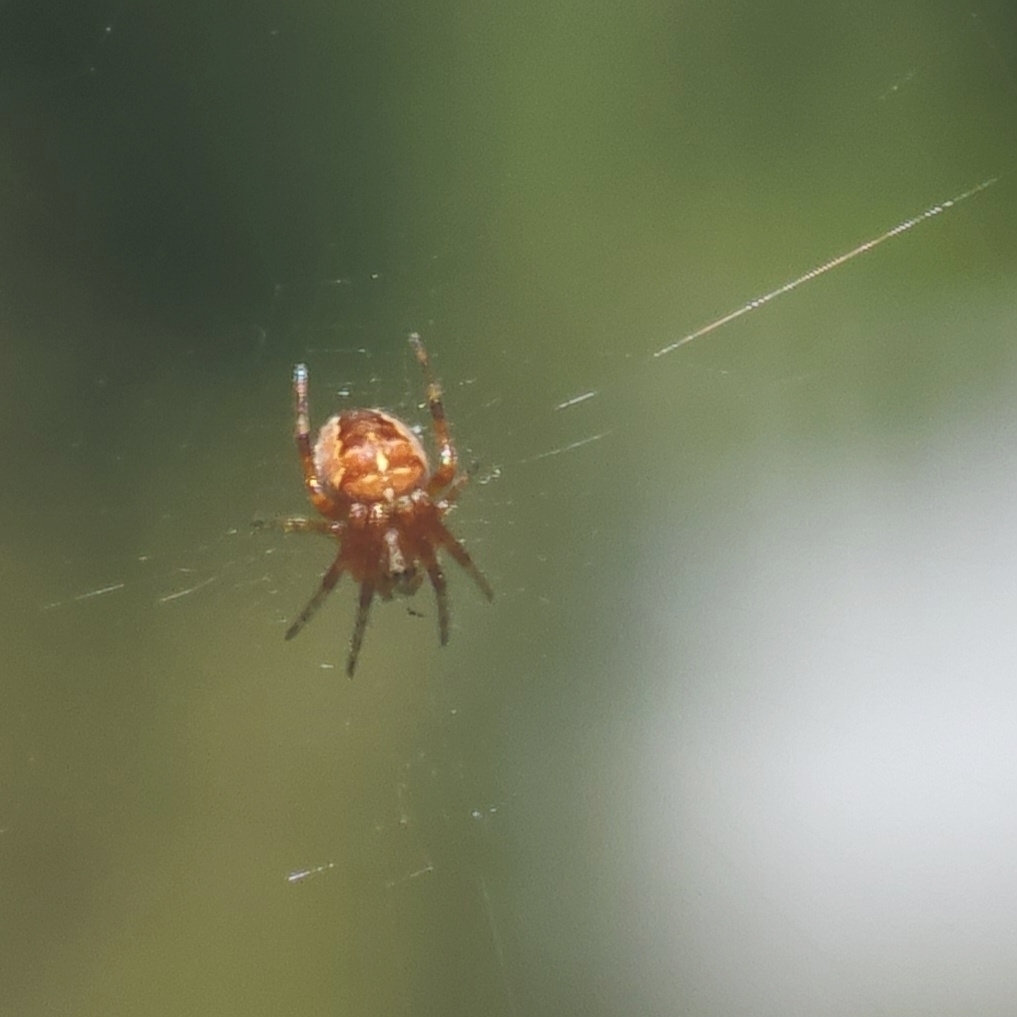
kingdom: Animalia
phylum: Arthropoda
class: Arachnida
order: Araneae
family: Araneidae
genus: Araneus
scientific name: Araneus diadematus
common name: Cross orbweaver
